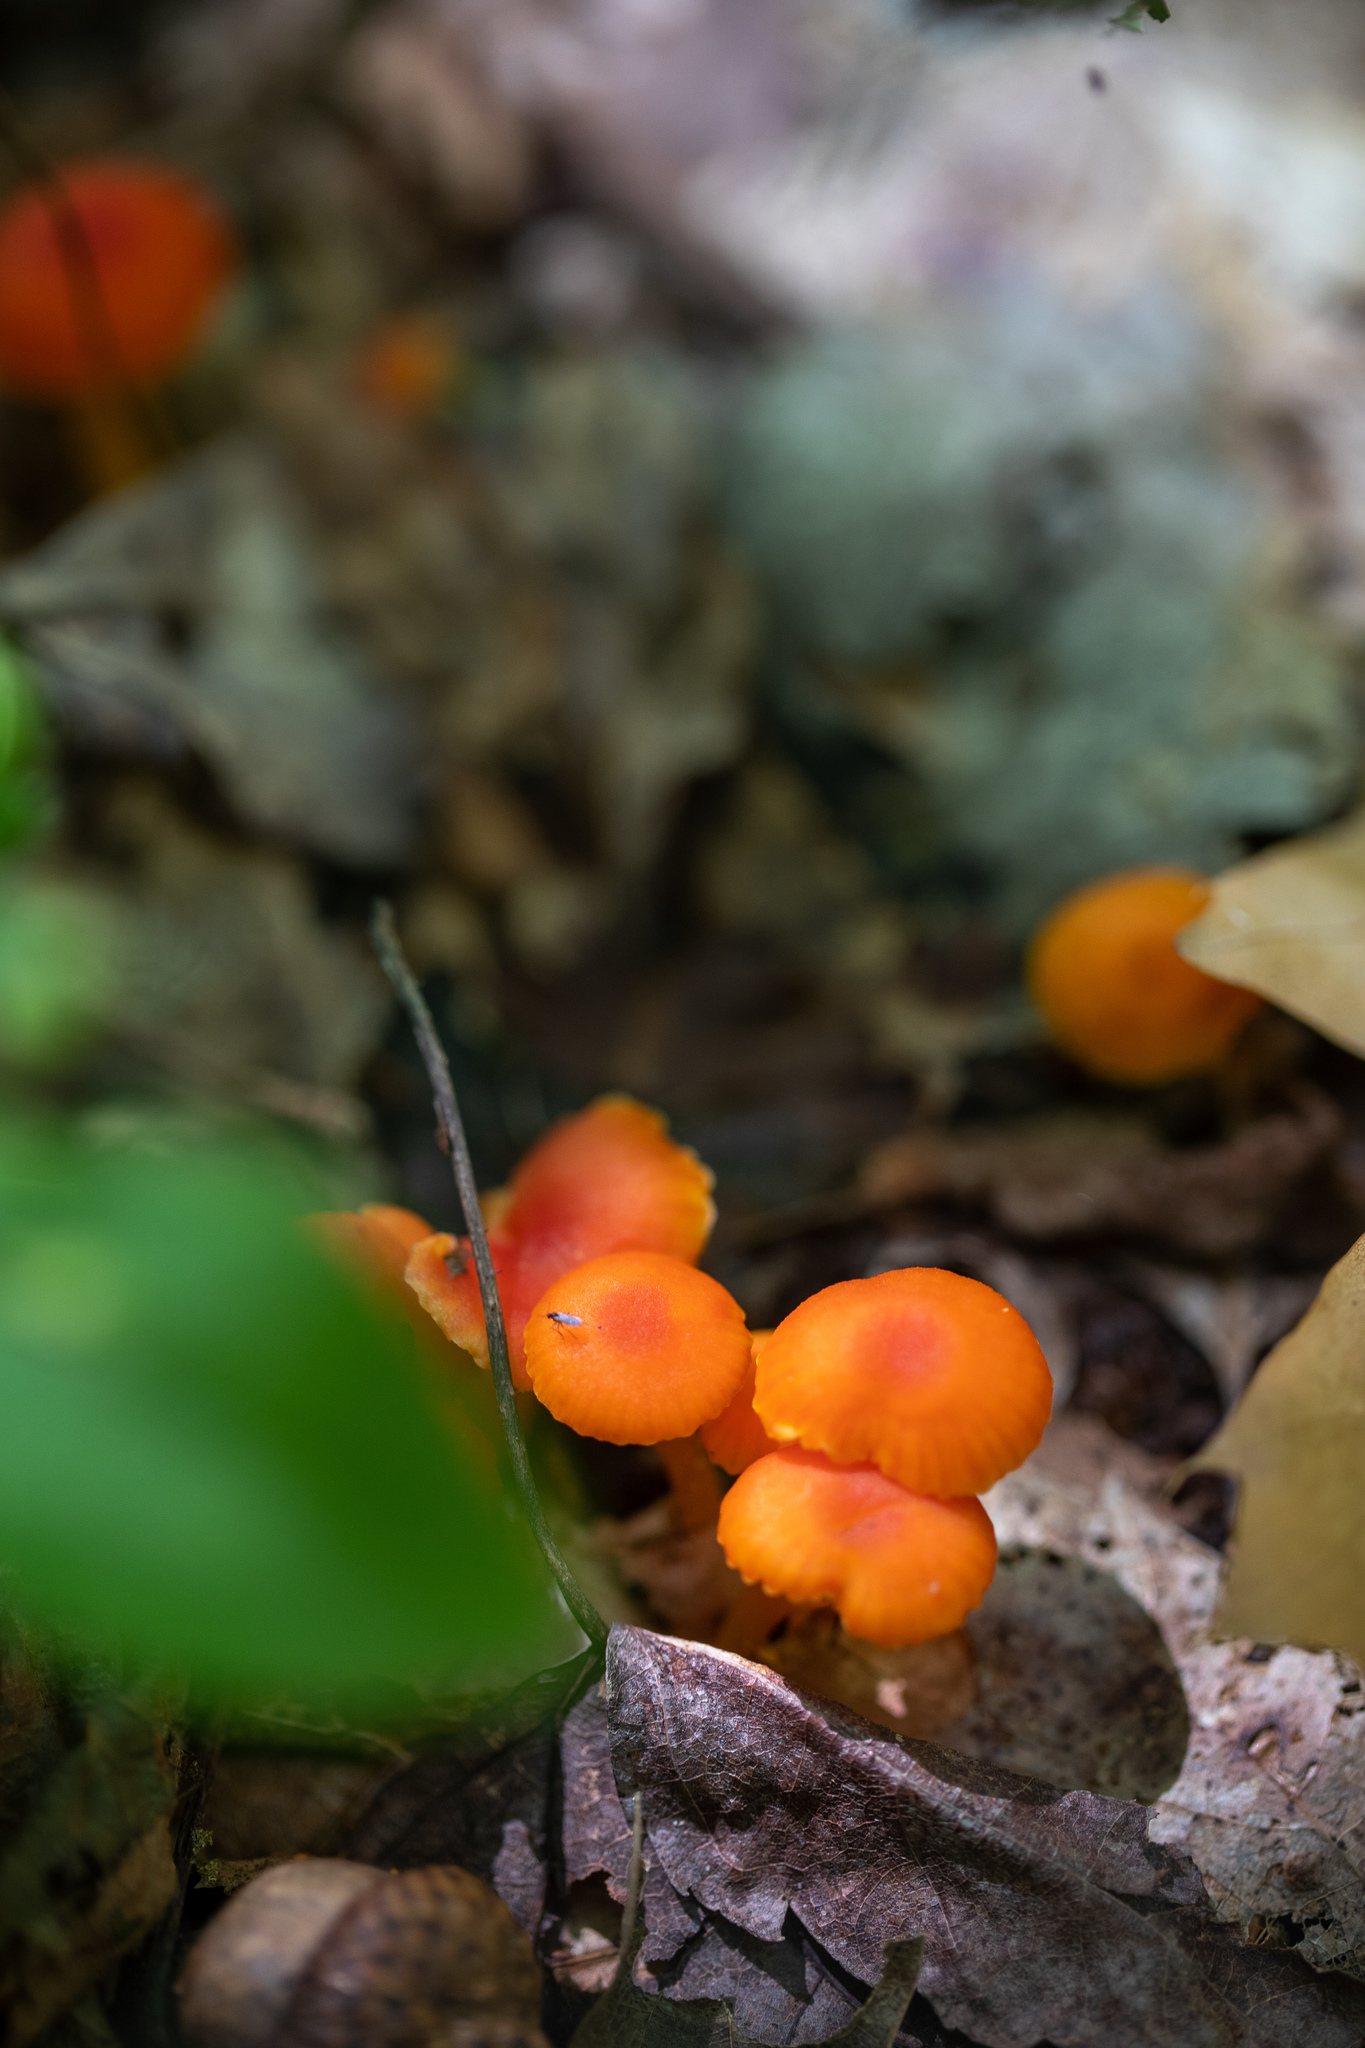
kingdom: Fungi
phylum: Basidiomycota
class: Agaricomycetes
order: Agaricales
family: Hygrophoraceae
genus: Hygrocybe
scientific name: Hygrocybe miniata
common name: Vermilion waxcap
